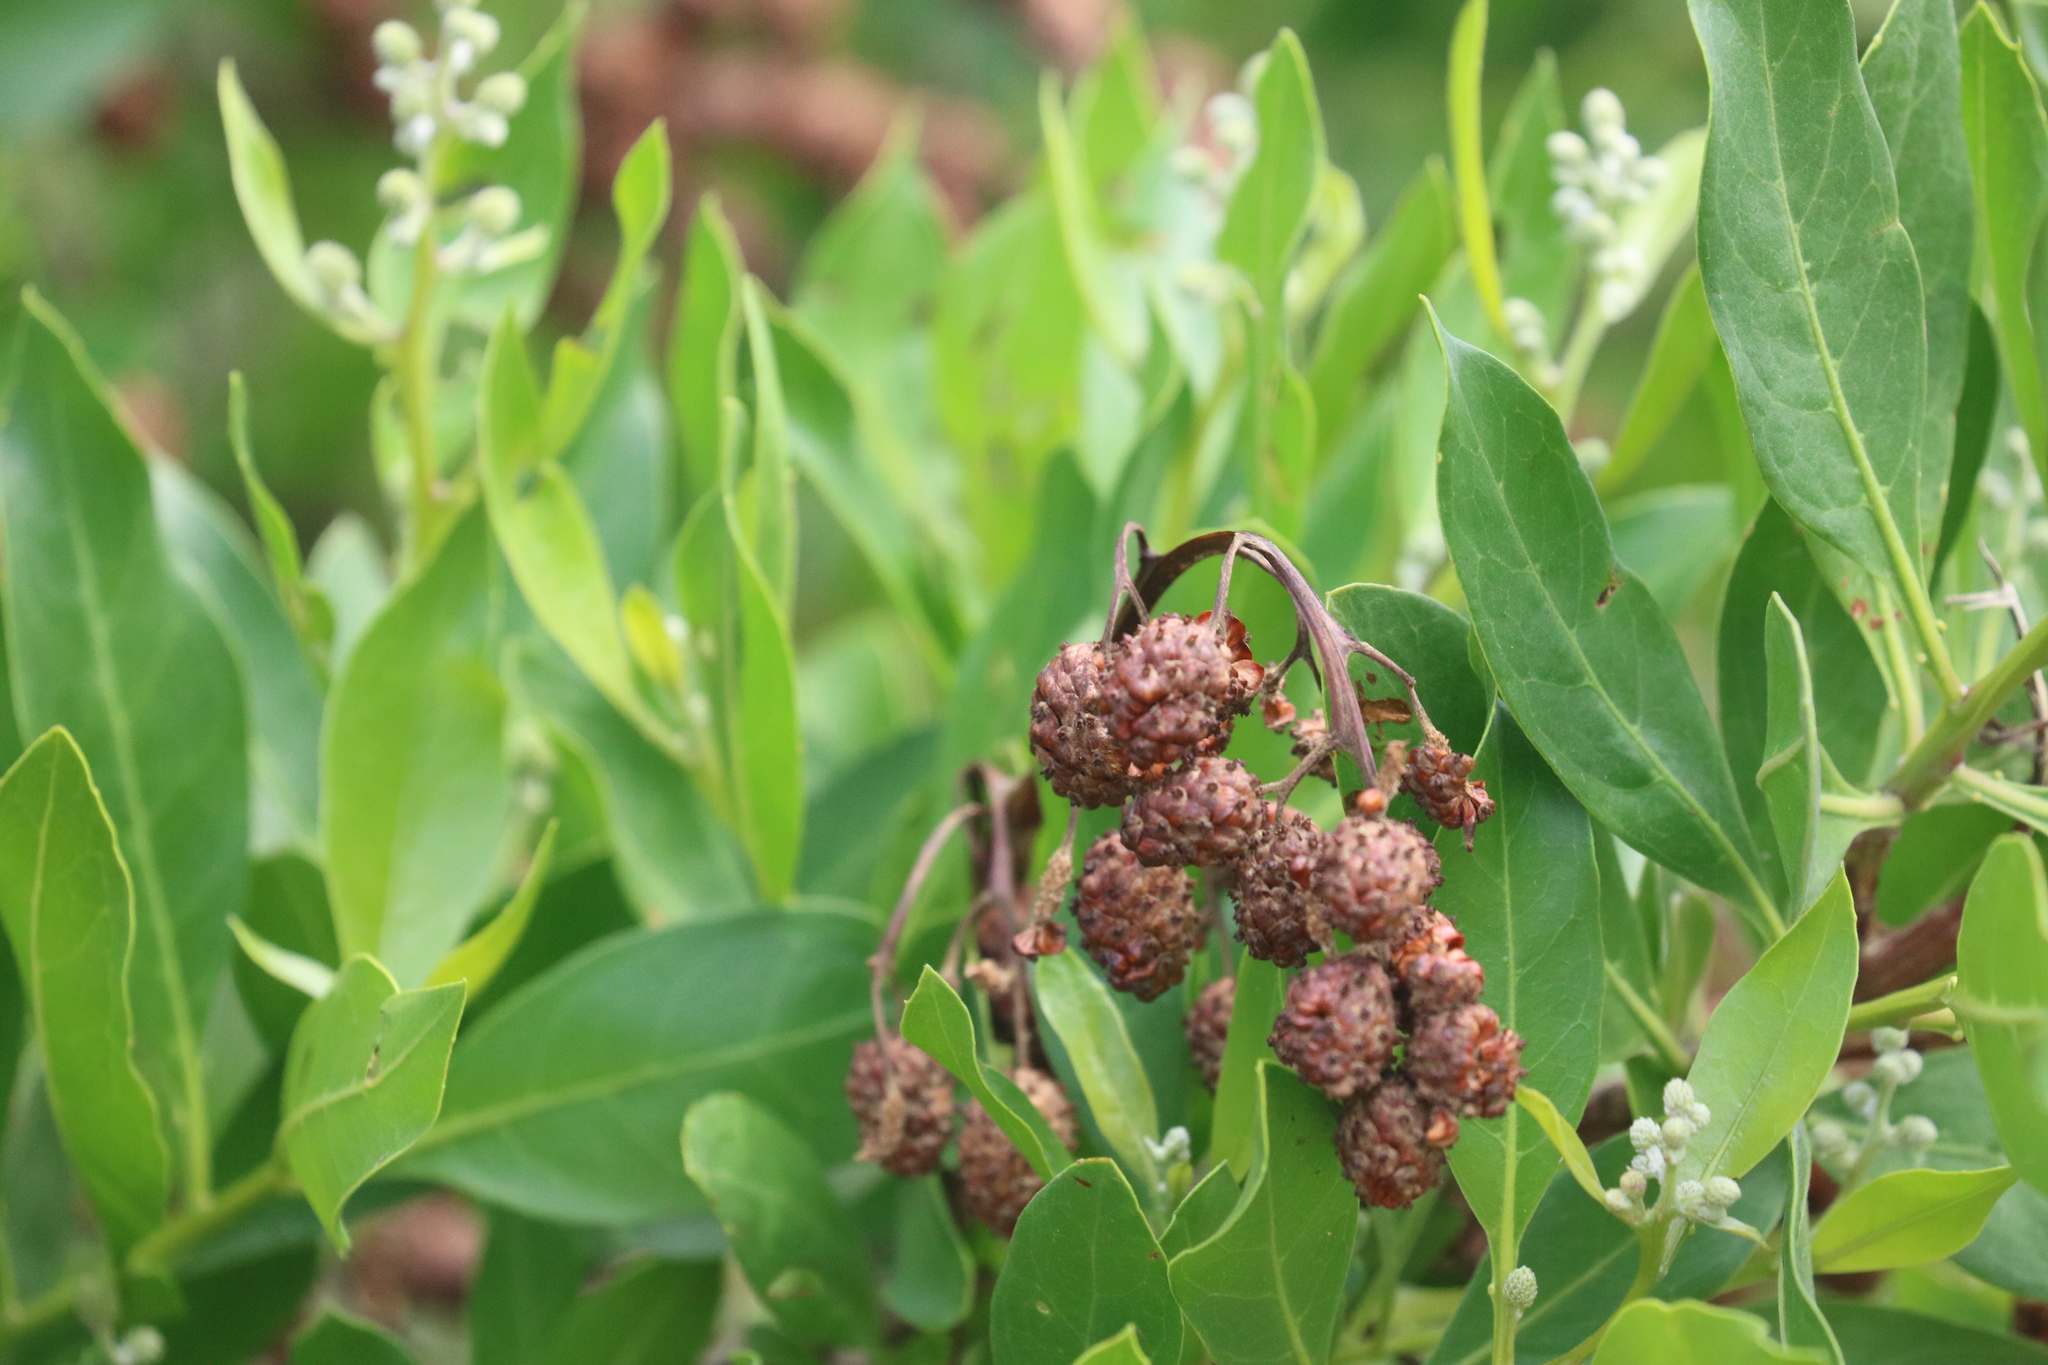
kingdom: Plantae
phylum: Tracheophyta
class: Magnoliopsida
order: Myrtales
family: Combretaceae
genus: Conocarpus
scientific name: Conocarpus erectus
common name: Button mangrove
